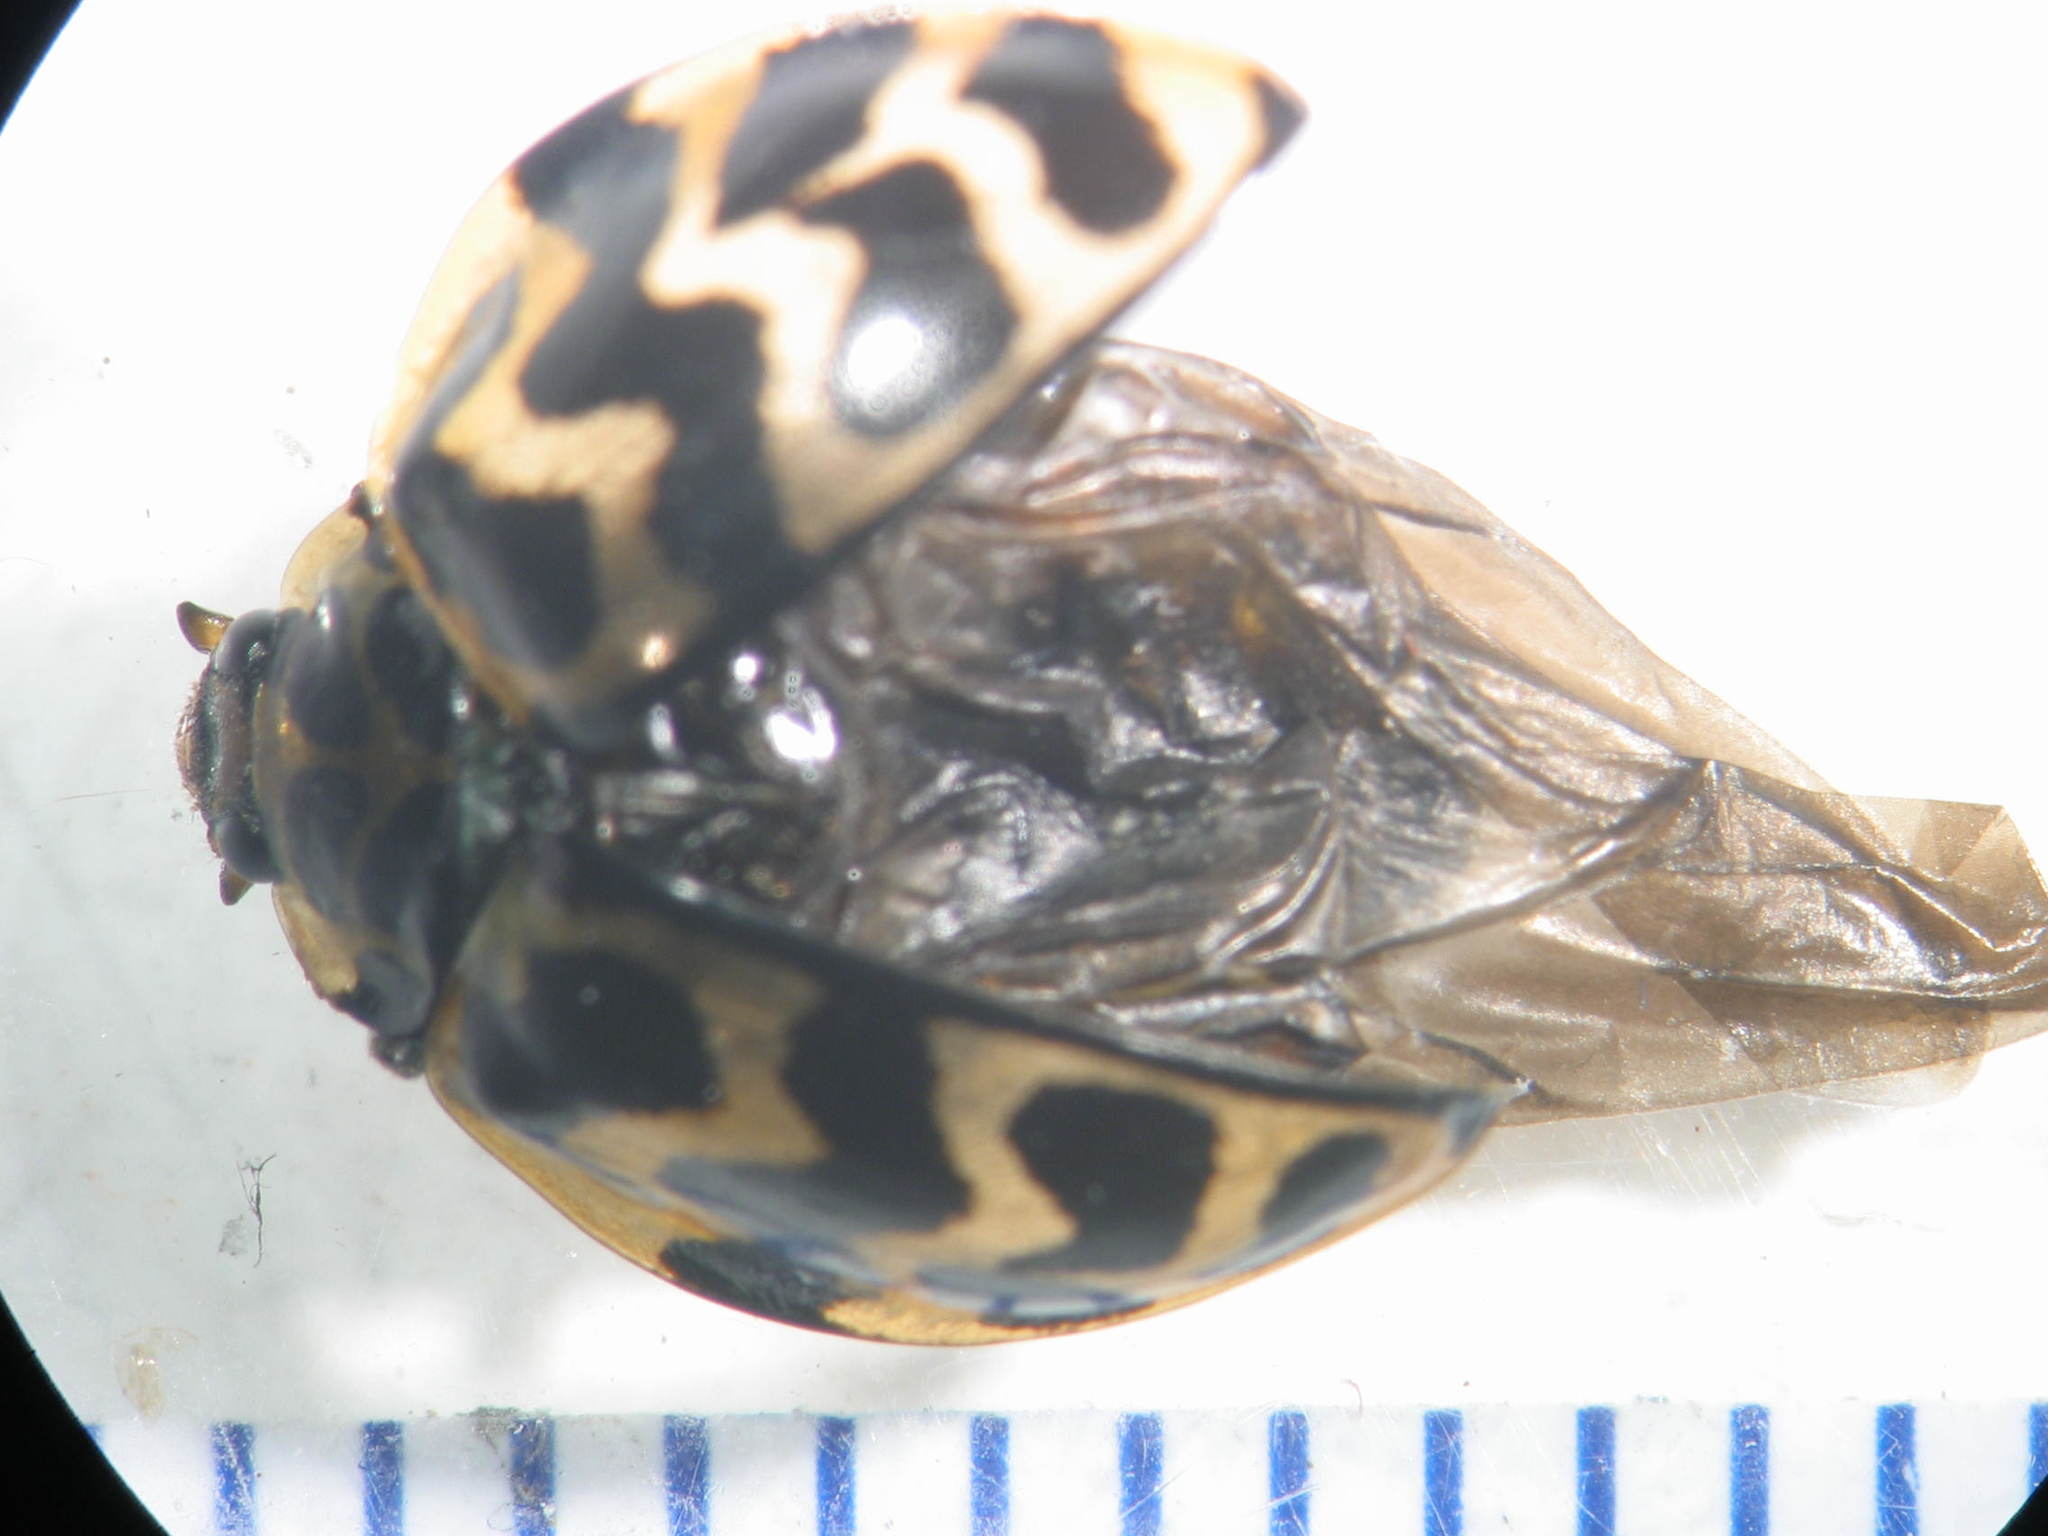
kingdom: Animalia
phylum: Arthropoda
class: Insecta
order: Coleoptera
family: Coccinellidae
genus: Cleobora
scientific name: Cleobora
